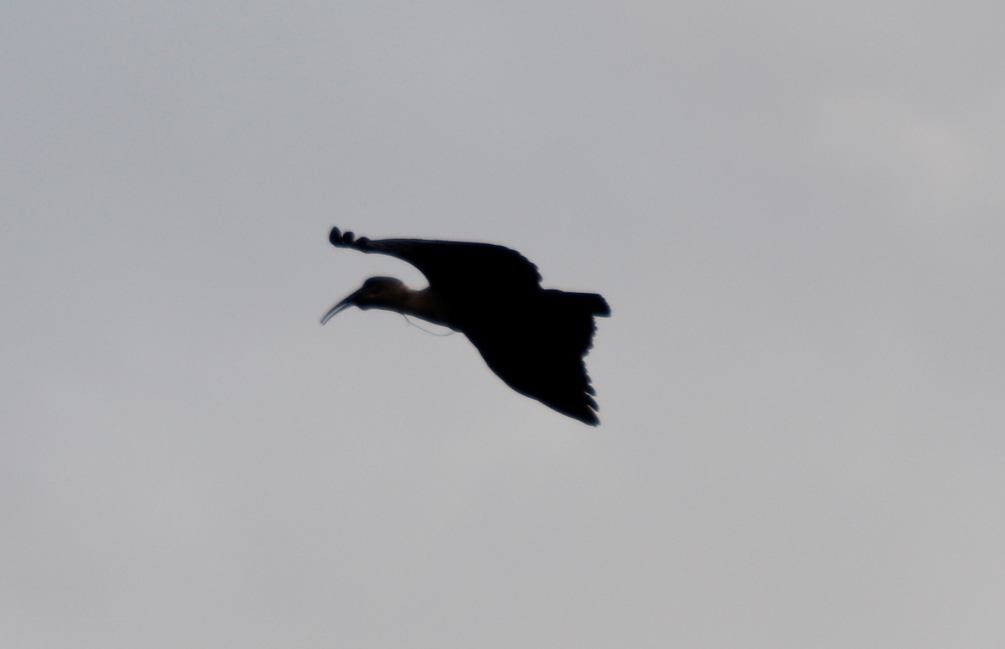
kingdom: Animalia
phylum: Chordata
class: Aves
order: Pelecaniformes
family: Threskiornithidae
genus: Bostrychia
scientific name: Bostrychia hagedash
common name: Hadada ibis
